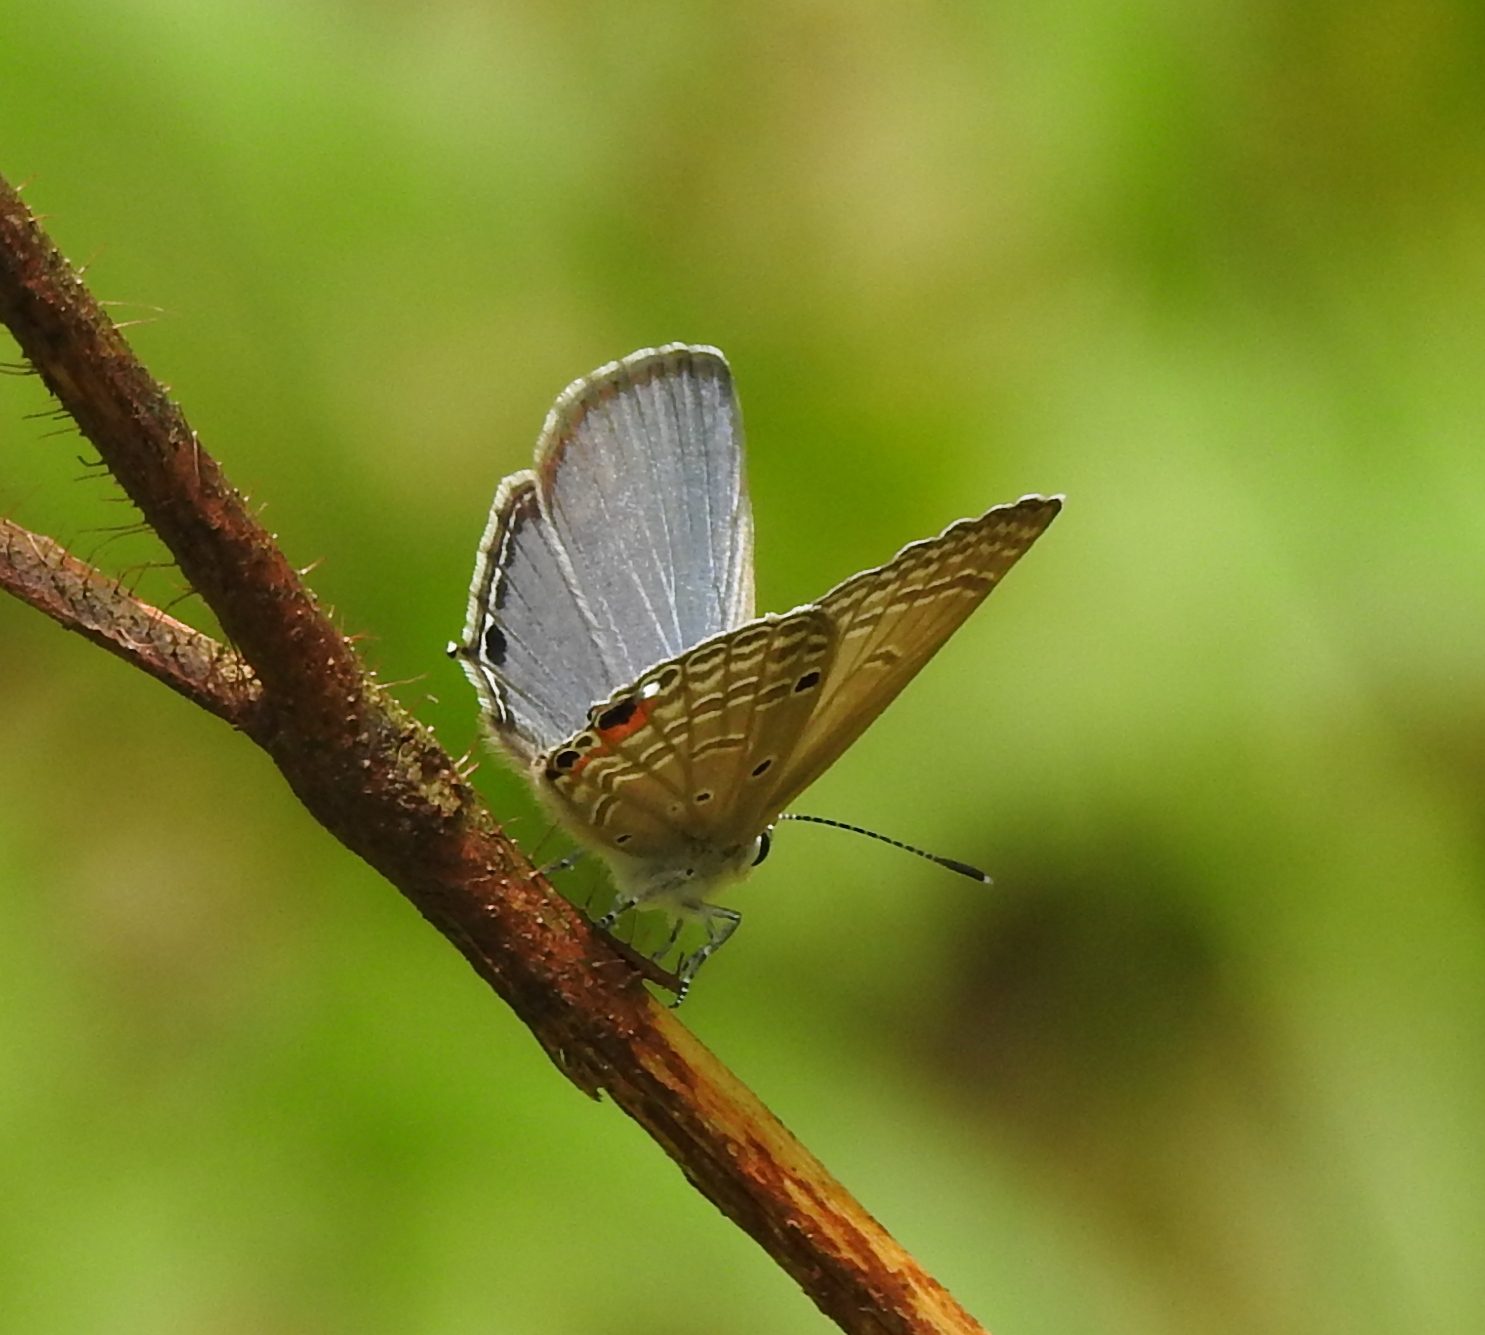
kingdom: Animalia
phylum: Arthropoda
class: Insecta
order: Lepidoptera
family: Lycaenidae
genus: Luthrodes
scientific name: Luthrodes pandava
